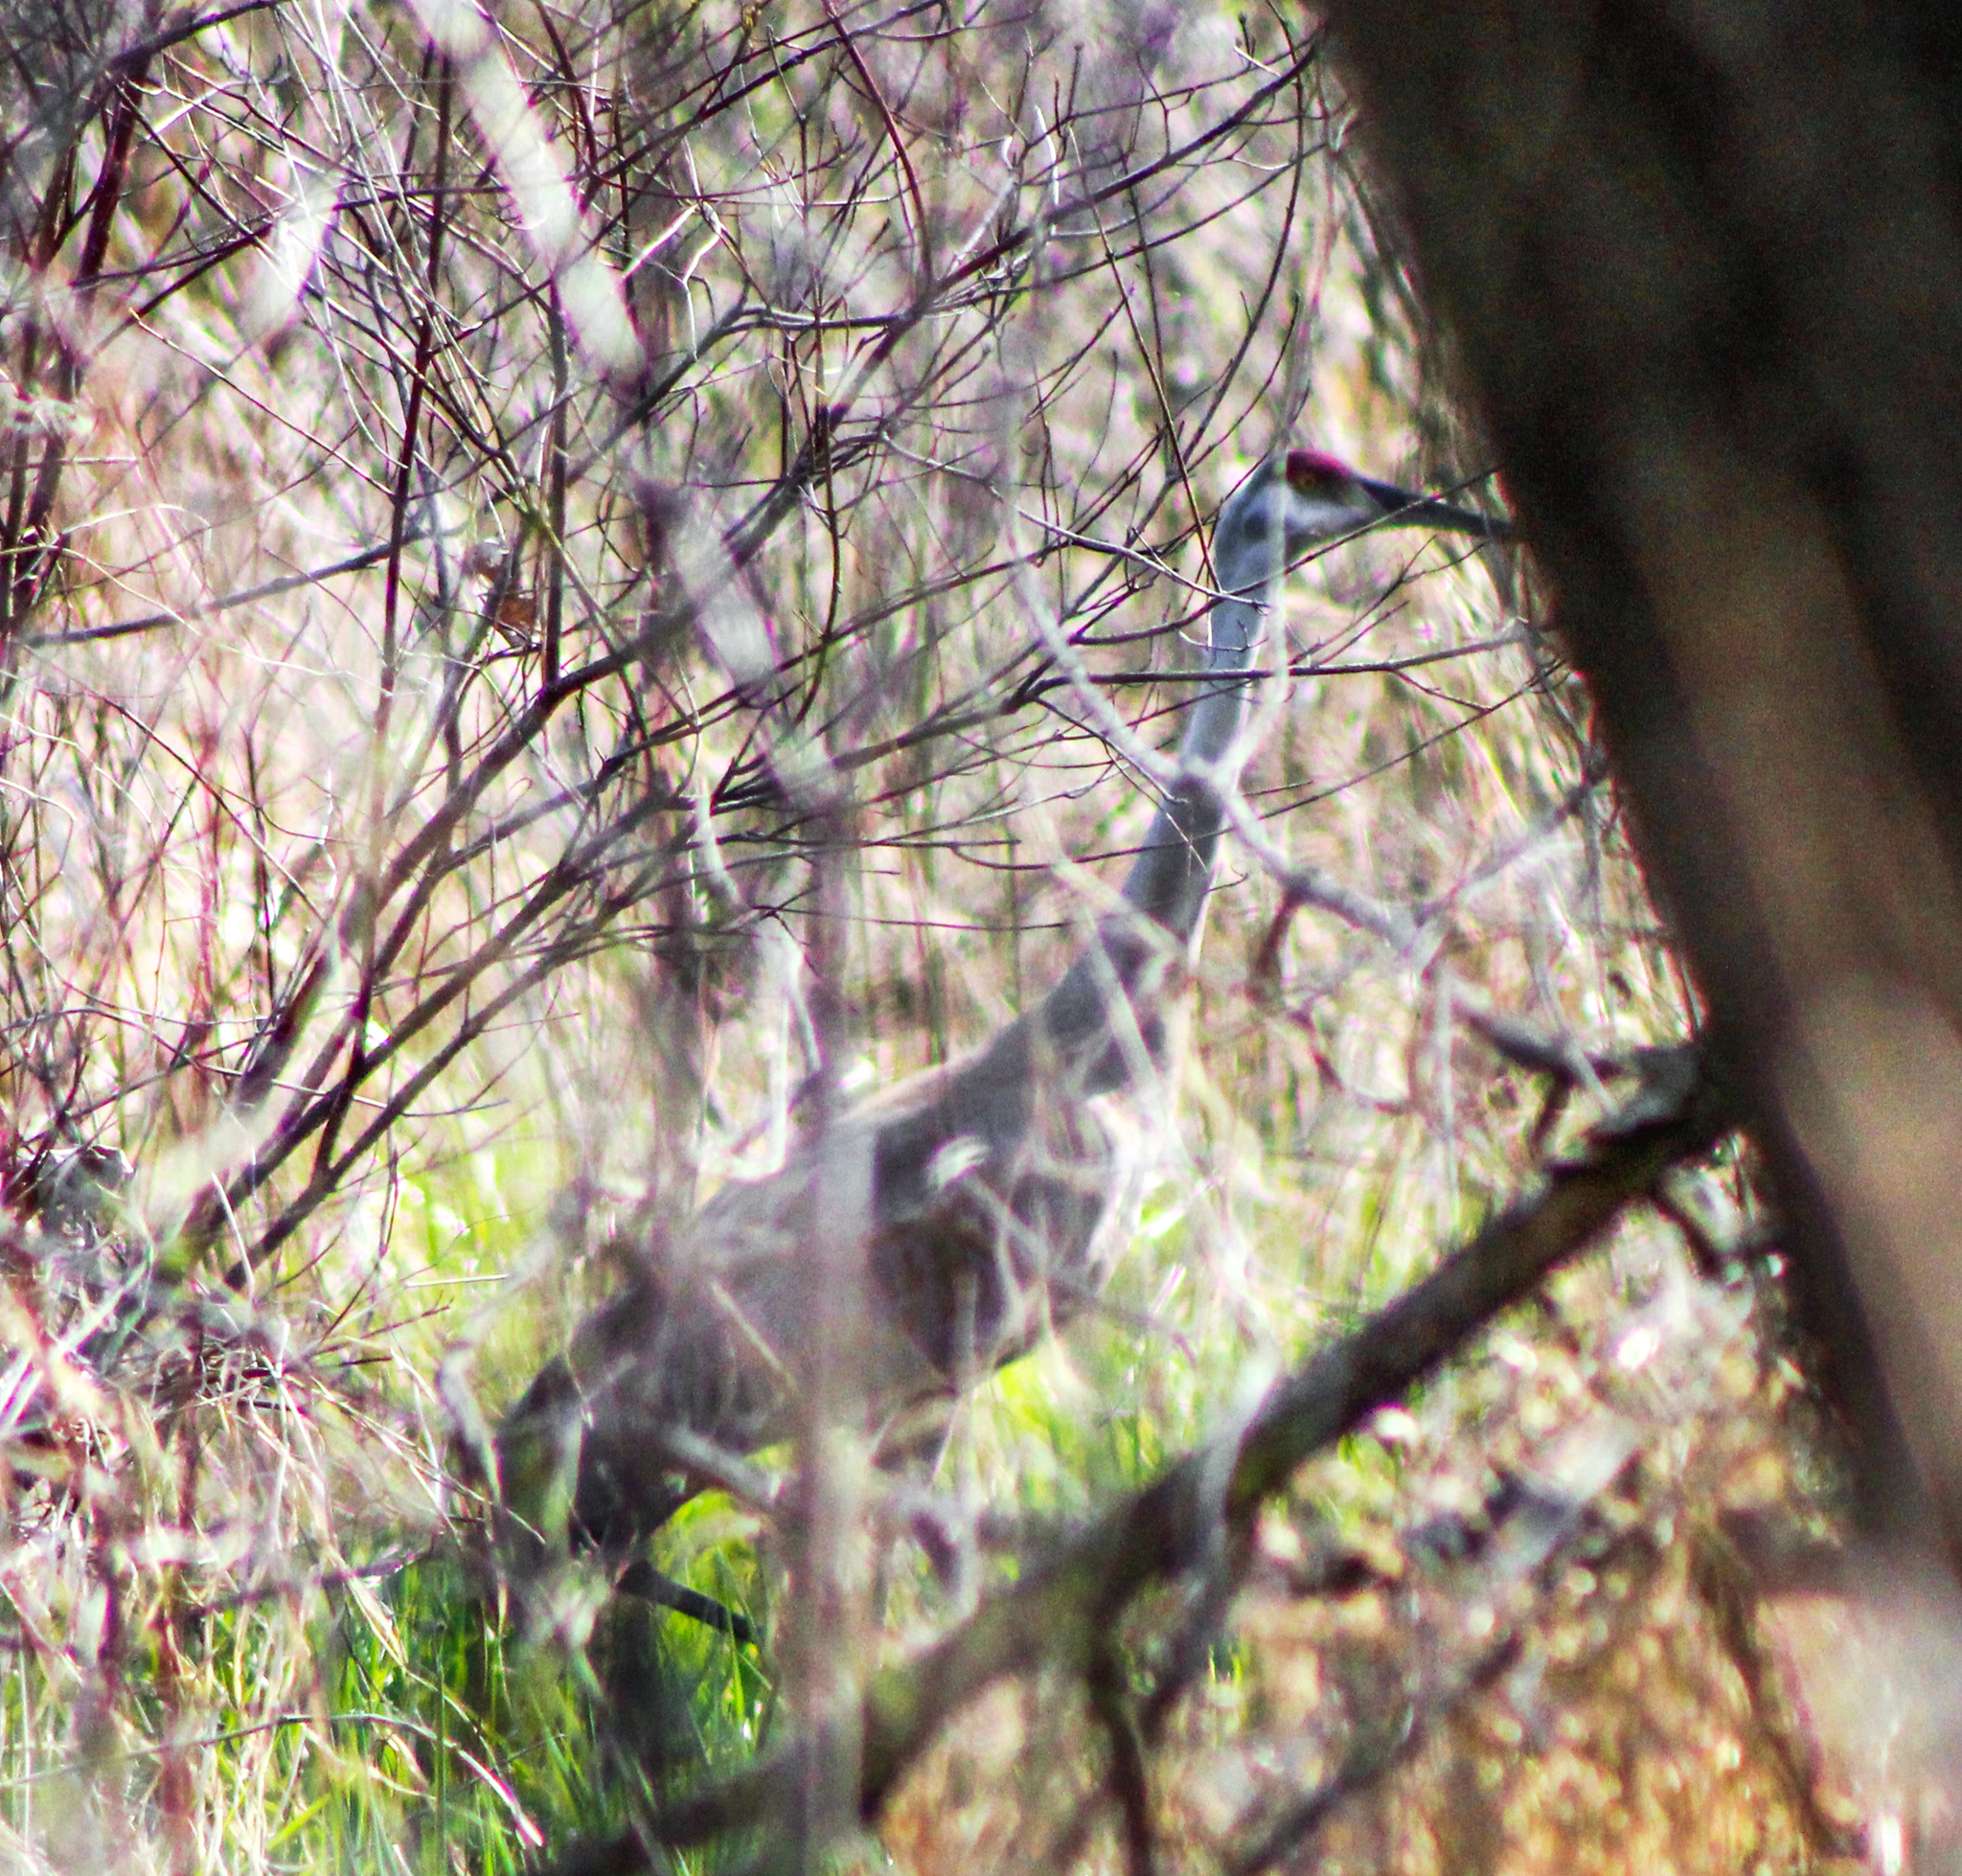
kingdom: Animalia
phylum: Chordata
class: Aves
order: Gruiformes
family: Gruidae
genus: Grus
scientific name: Grus canadensis
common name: Sandhill crane
